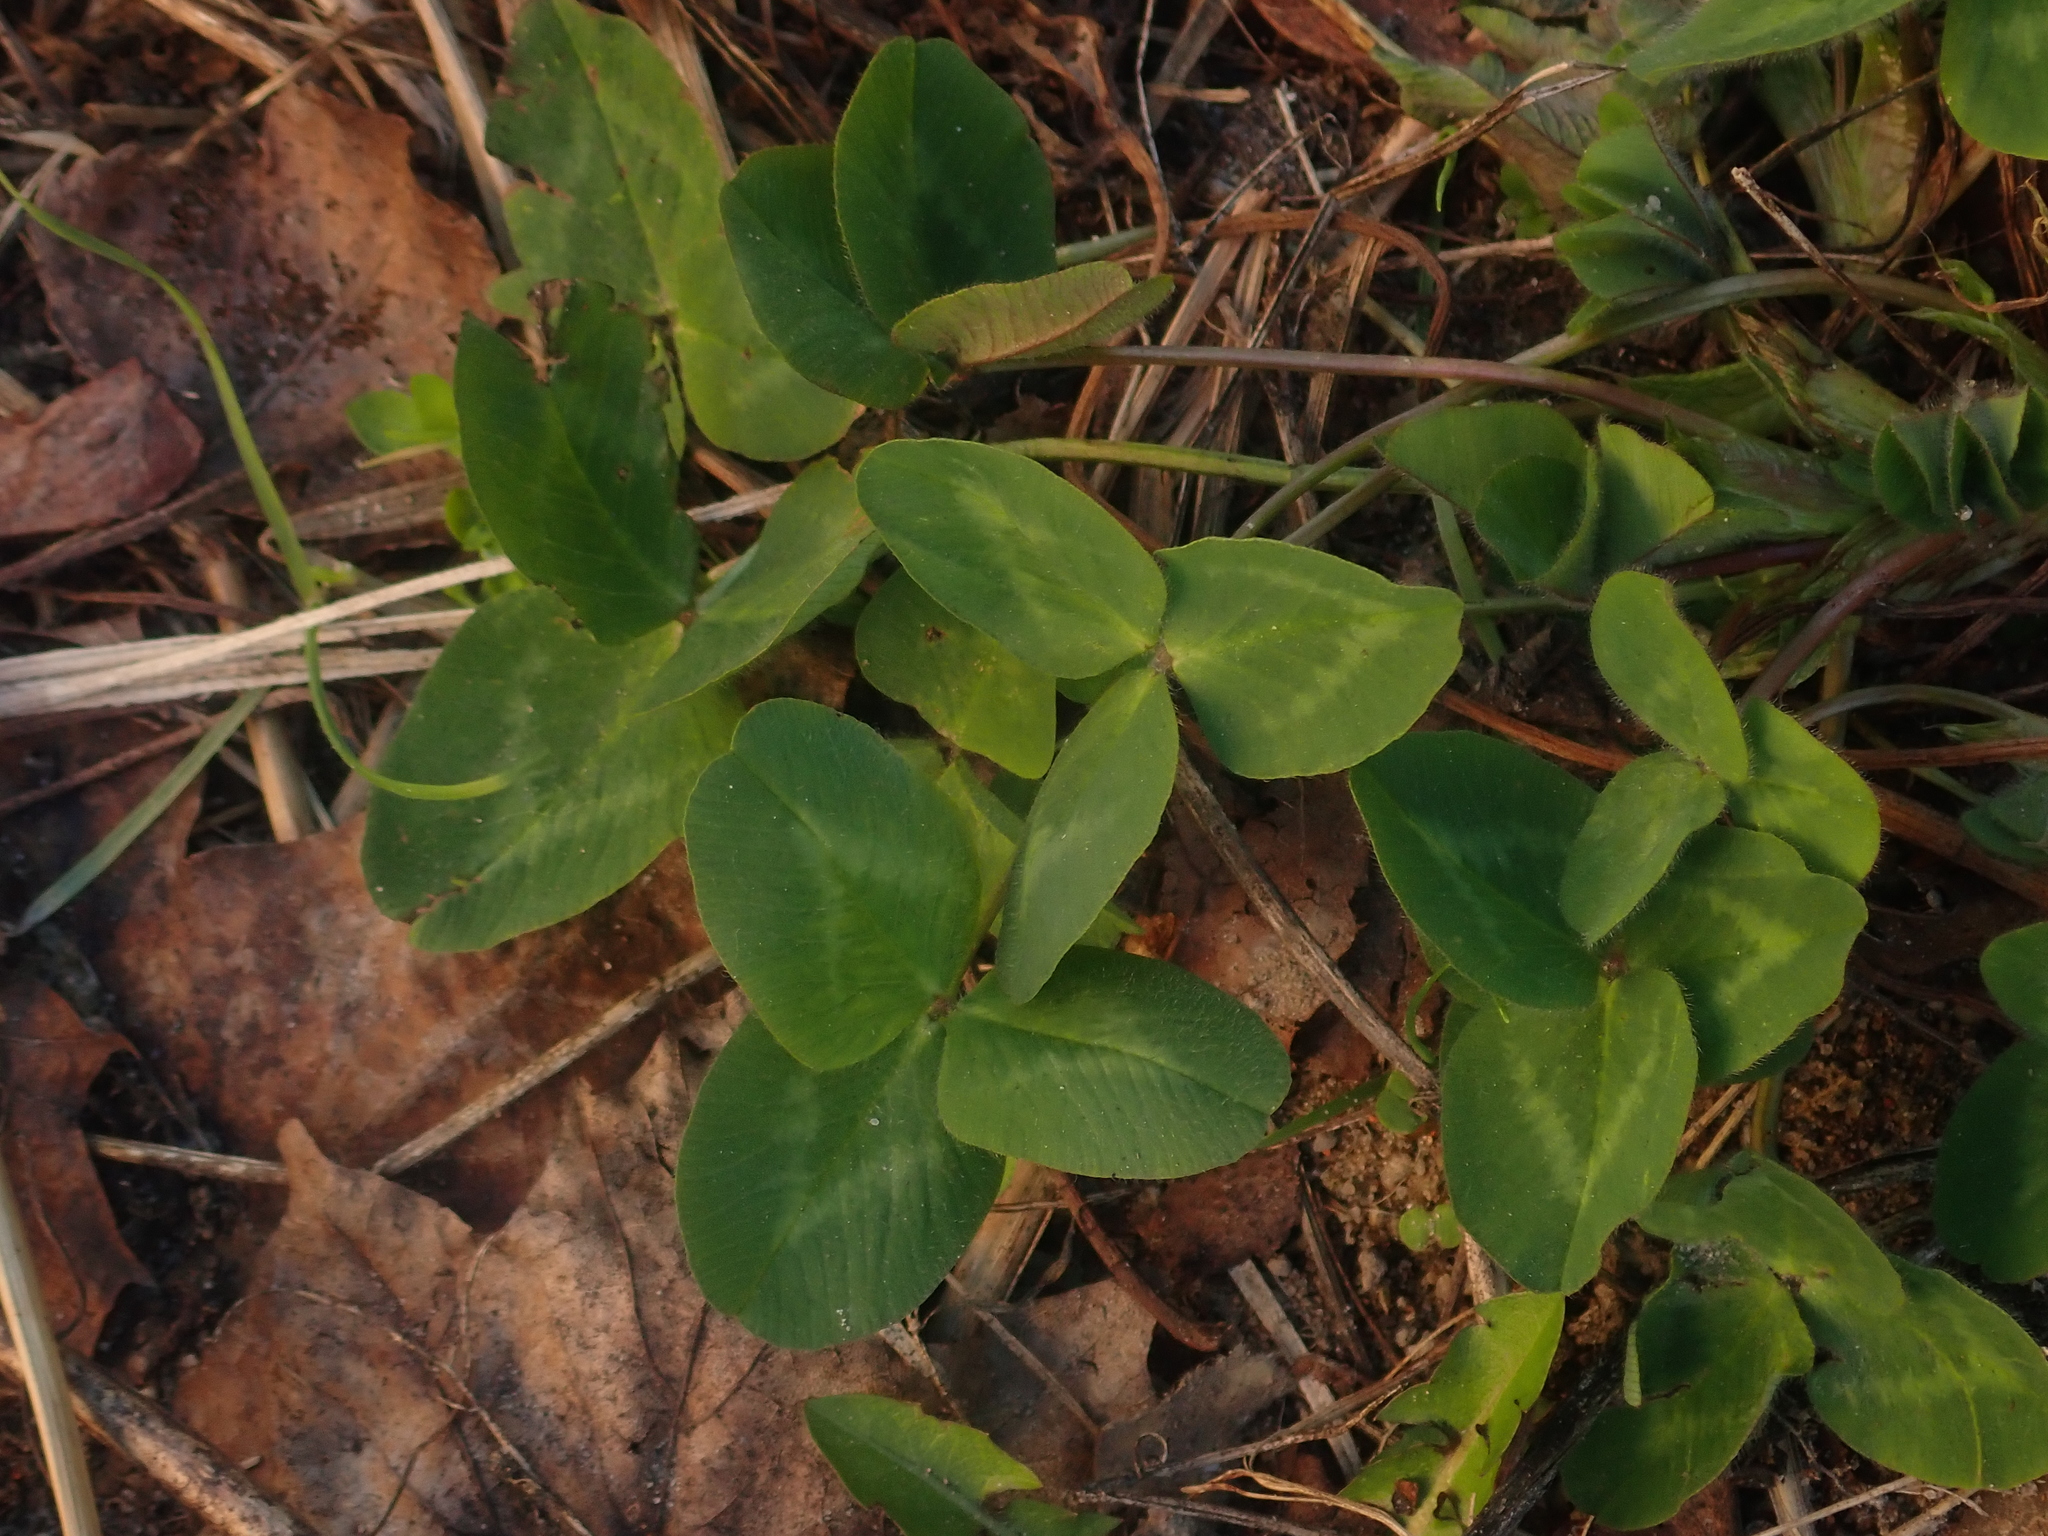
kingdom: Plantae
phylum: Tracheophyta
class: Magnoliopsida
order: Fabales
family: Fabaceae
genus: Trifolium
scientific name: Trifolium pratense
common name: Red clover
